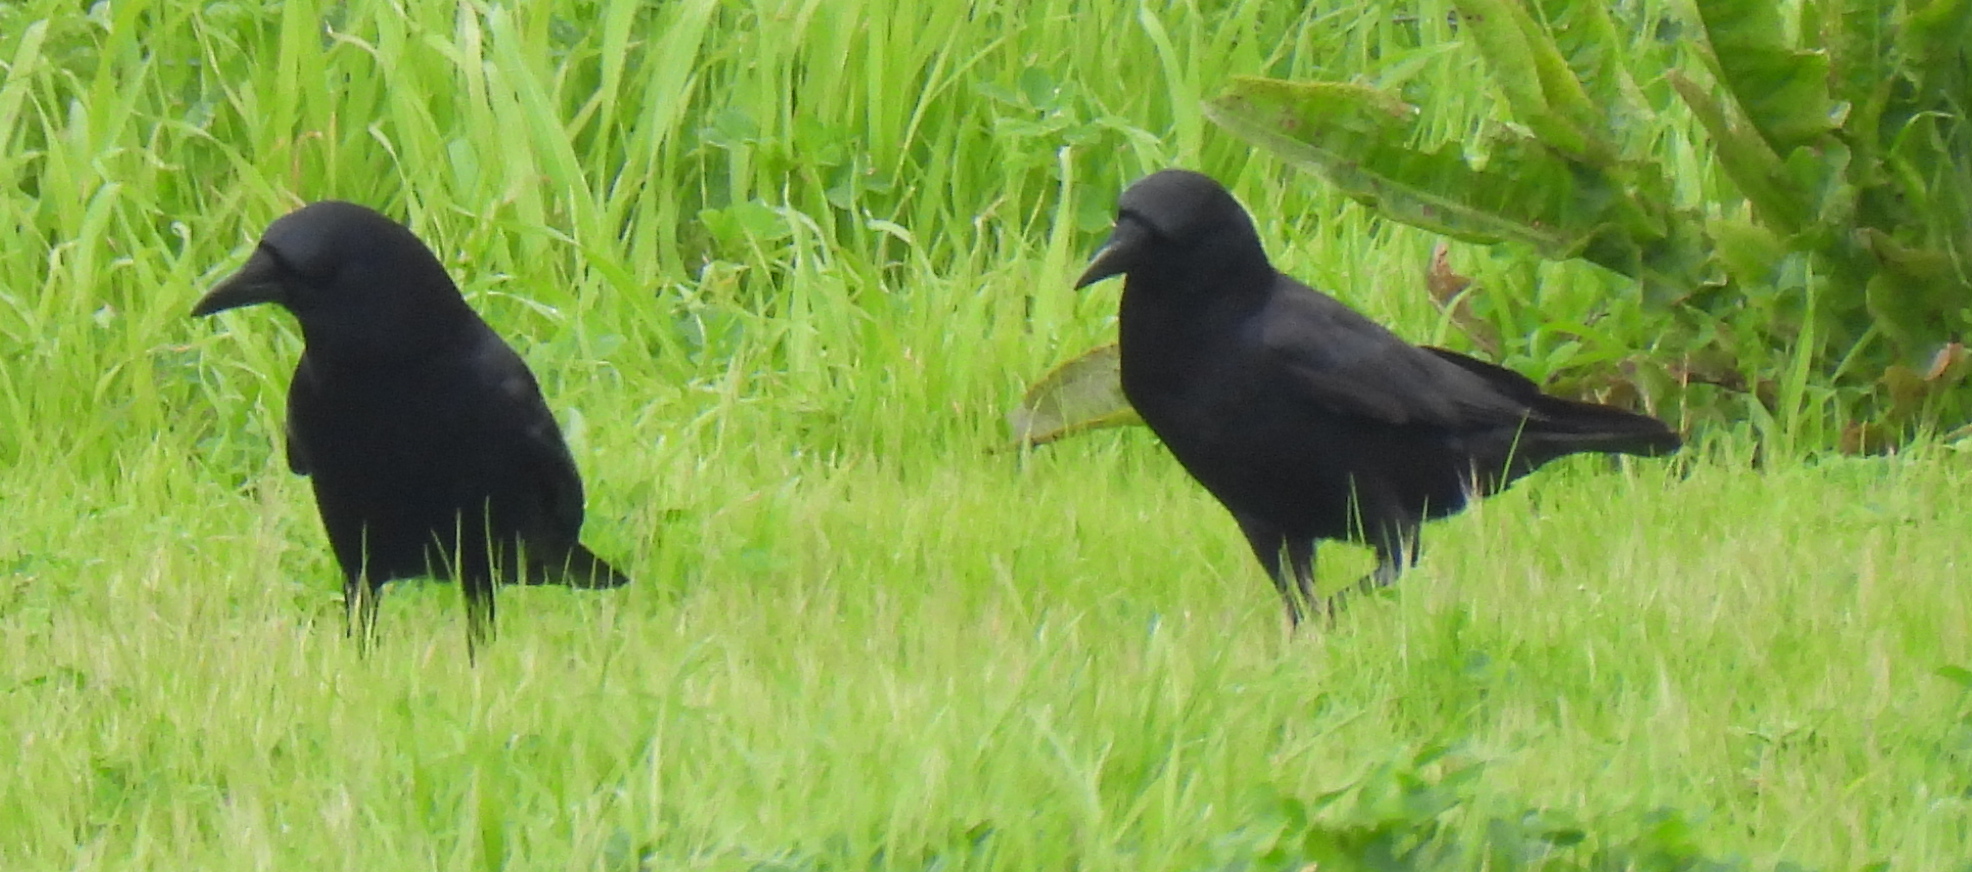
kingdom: Animalia
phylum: Chordata
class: Aves
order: Passeriformes
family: Corvidae
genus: Corvus
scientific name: Corvus brachyrhynchos
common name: American crow
